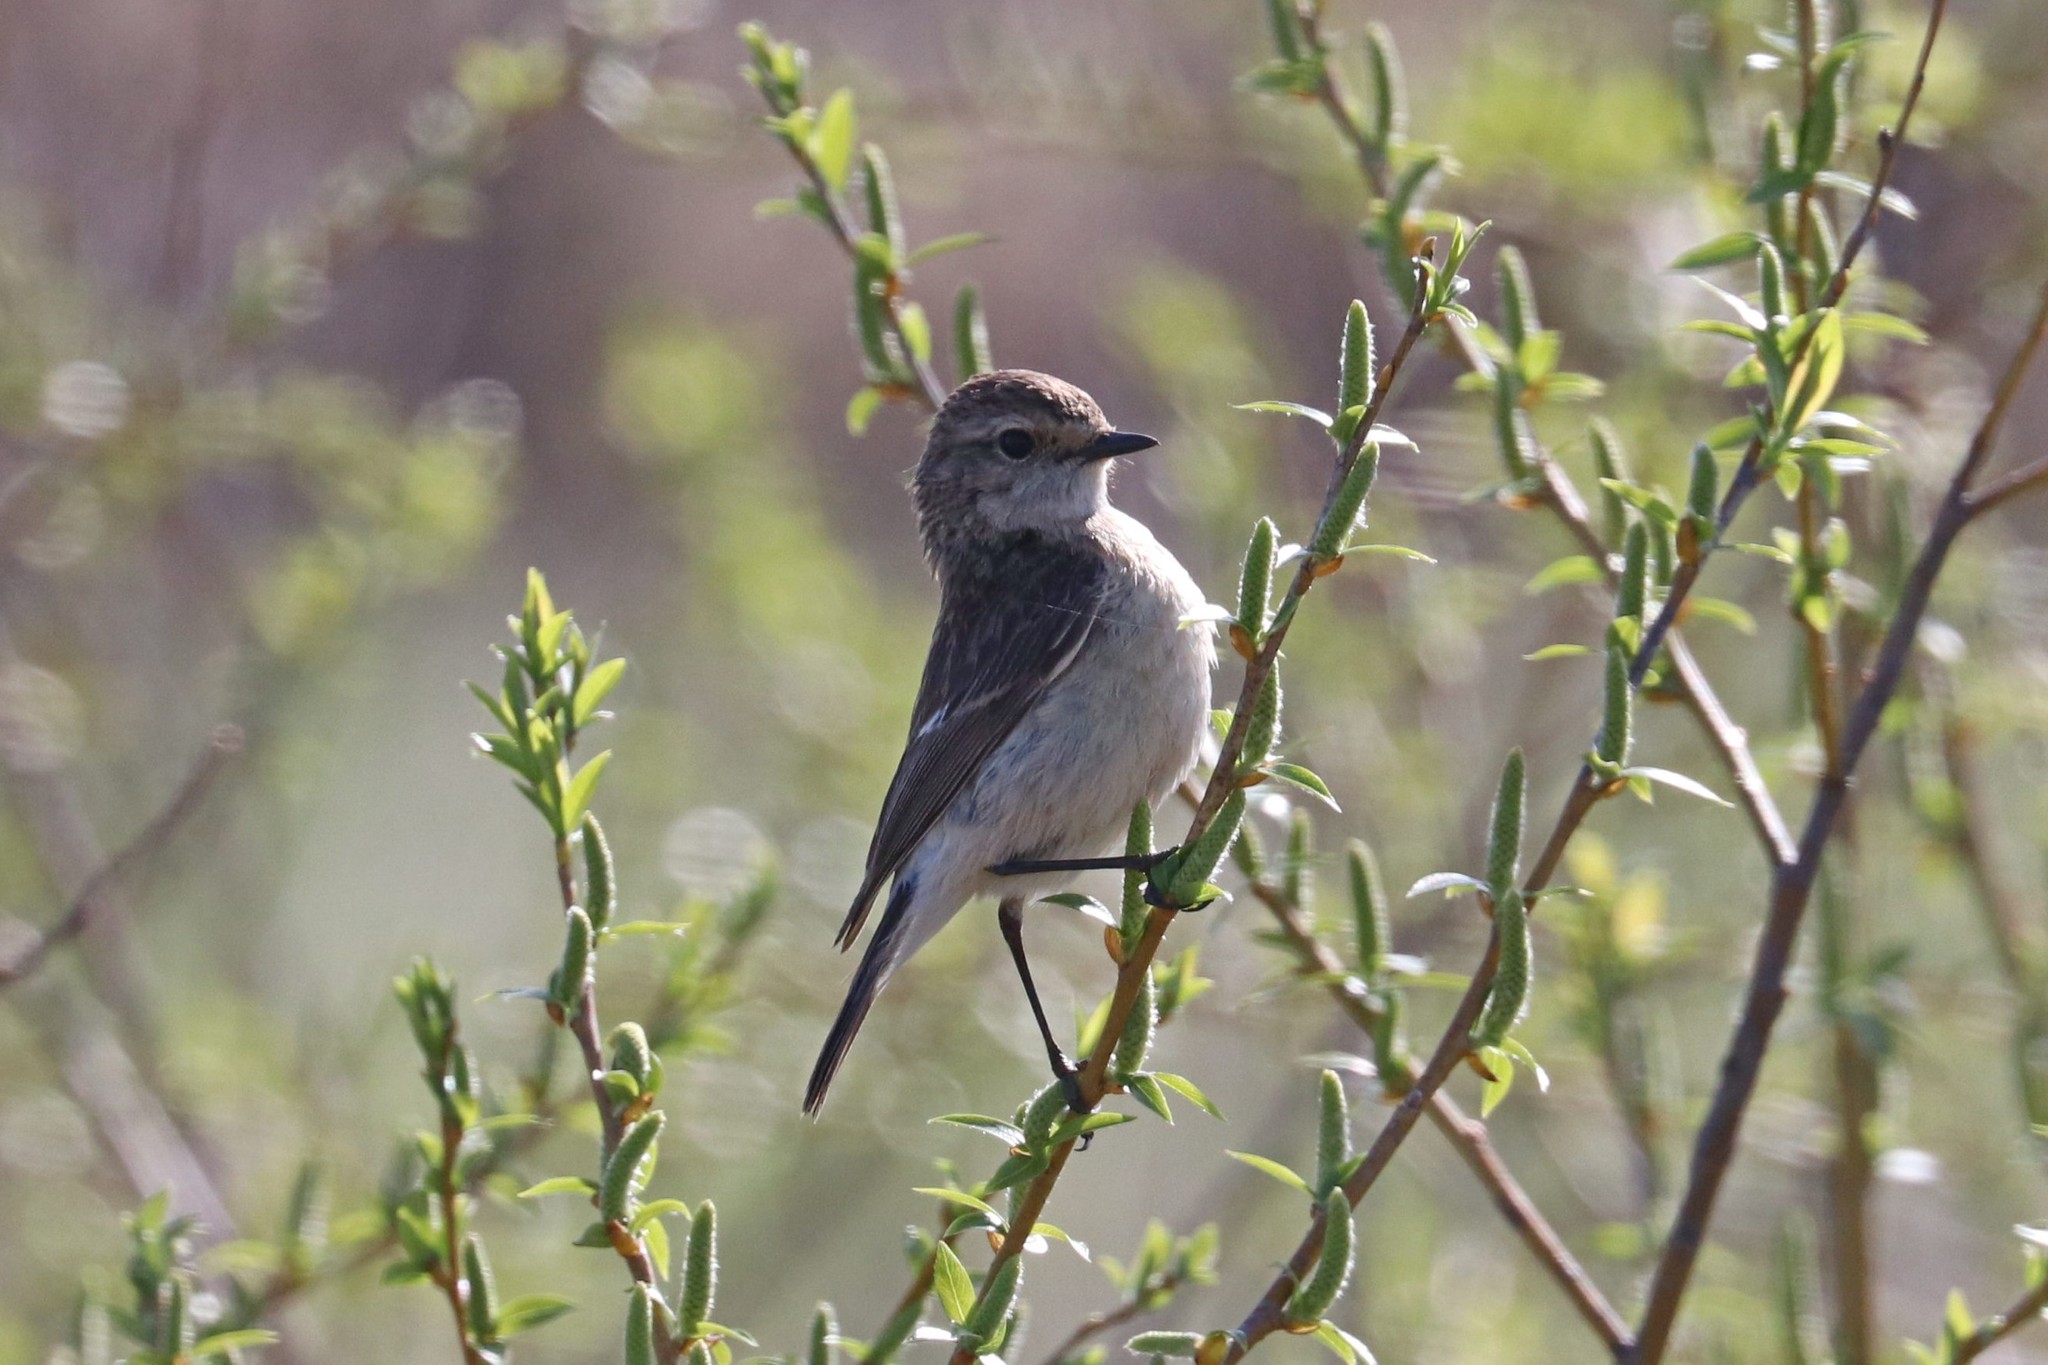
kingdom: Animalia
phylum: Chordata
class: Aves
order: Passeriformes
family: Muscicapidae
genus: Saxicola
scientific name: Saxicola maurus
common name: Siberian stonechat
